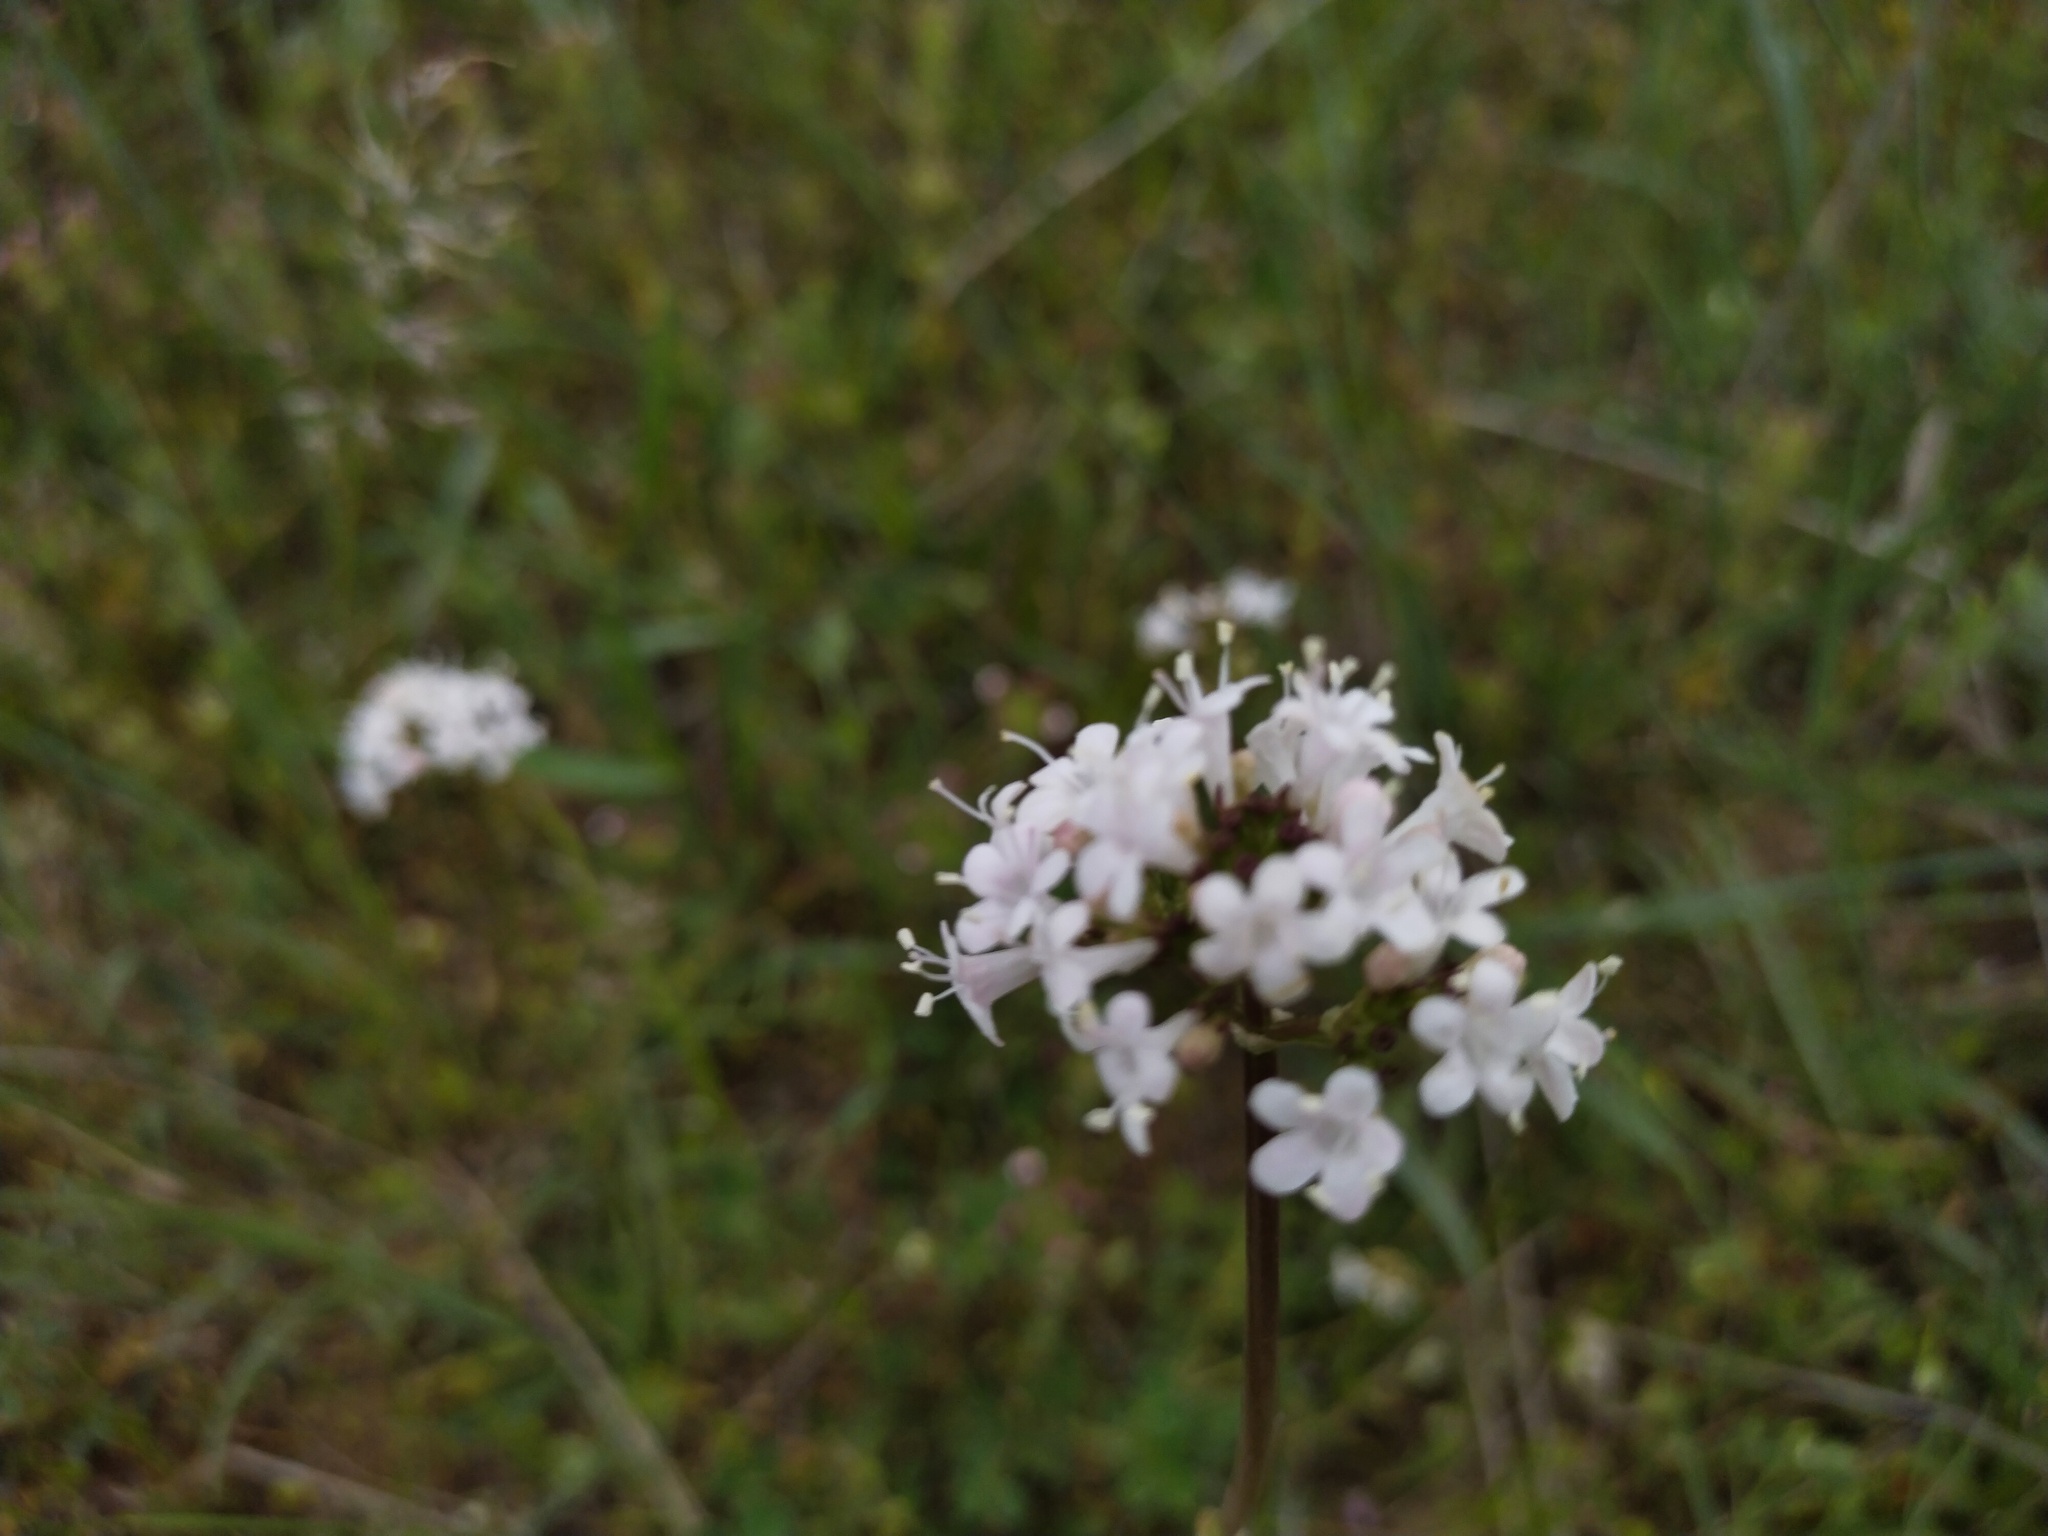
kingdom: Plantae
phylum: Tracheophyta
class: Magnoliopsida
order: Dipsacales
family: Caprifoliaceae
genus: Valeriana
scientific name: Valeriana tuberosa
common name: Tuberous valerian
